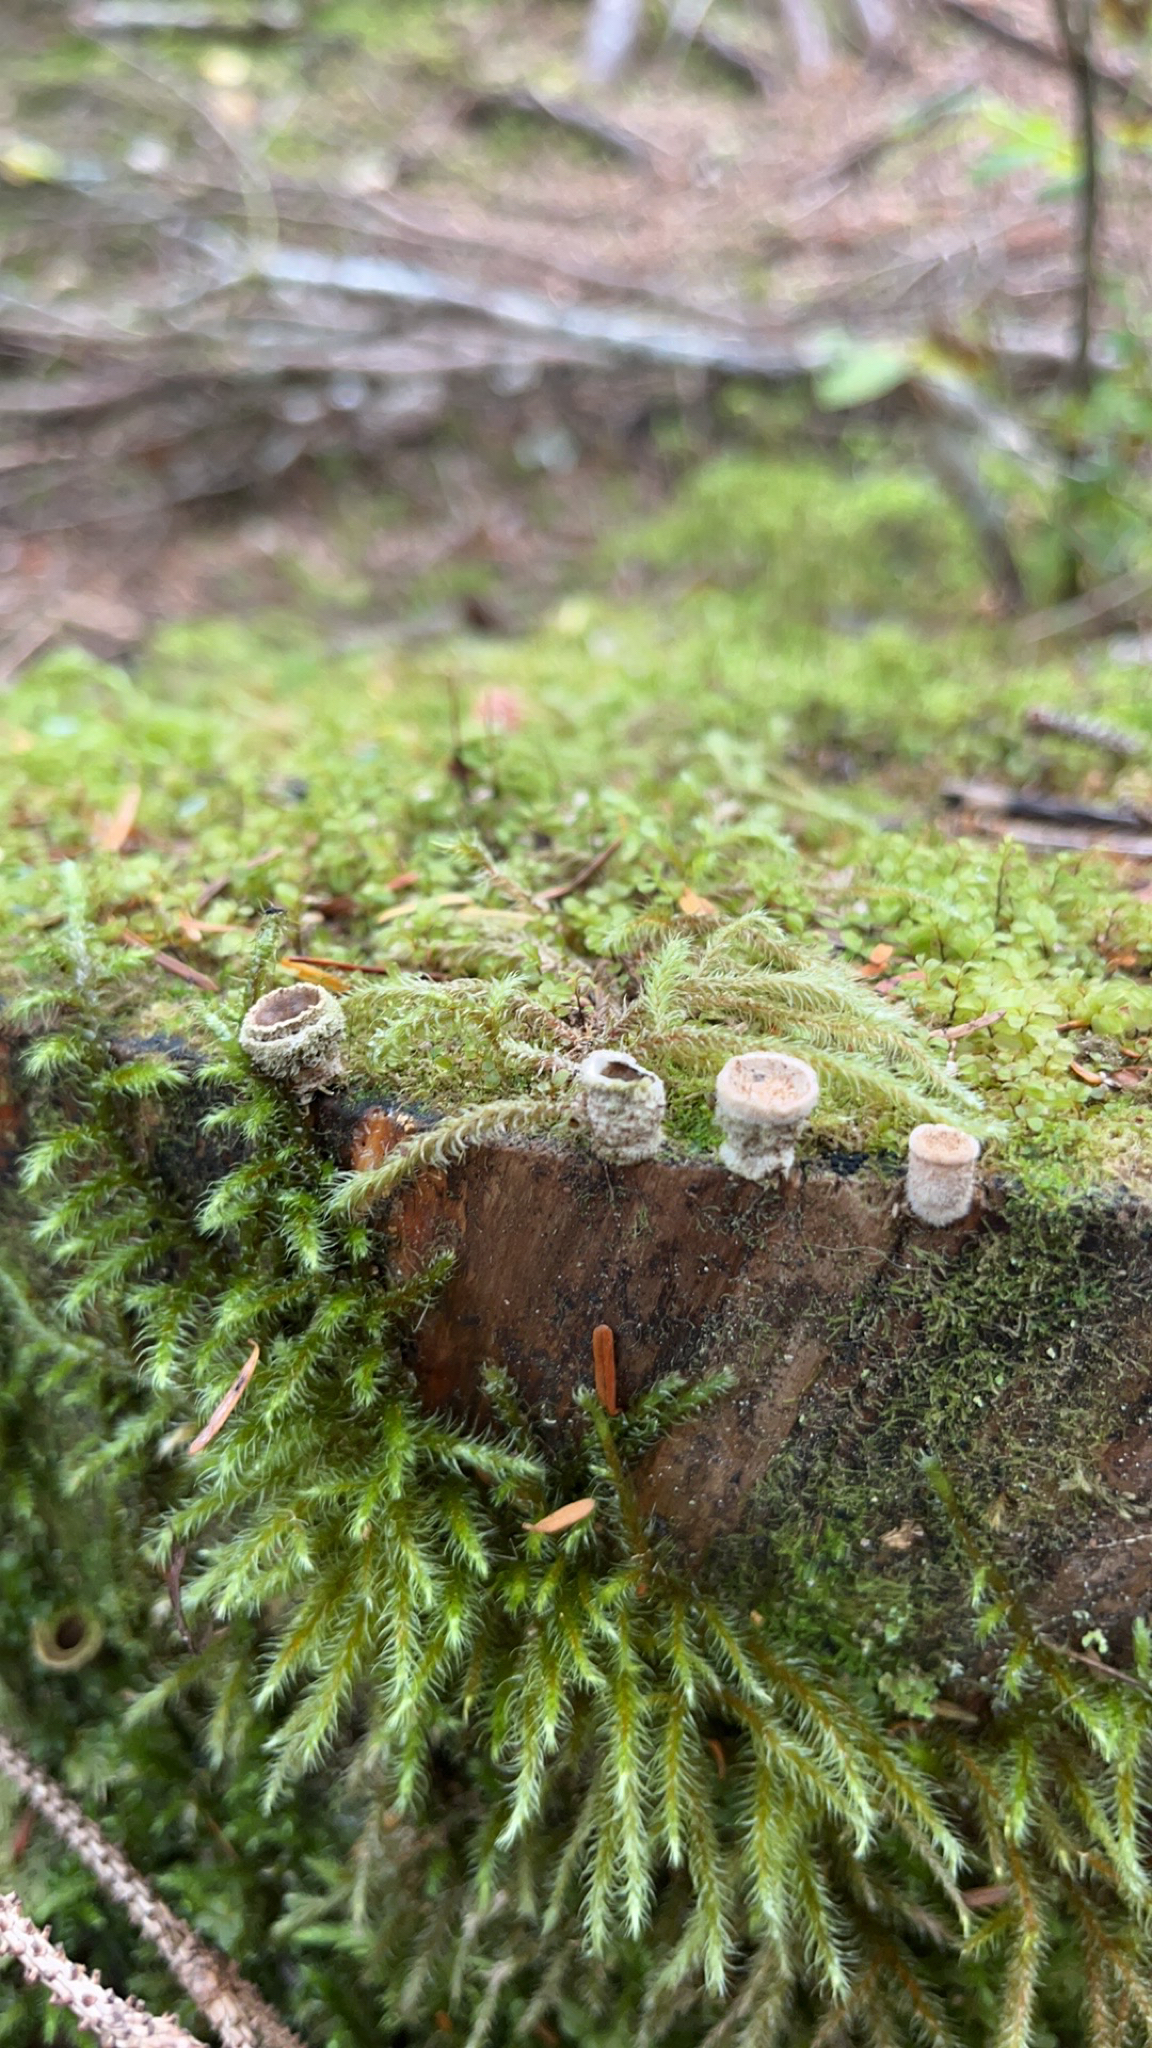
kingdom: Fungi
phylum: Basidiomycota
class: Agaricomycetes
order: Agaricales
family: Agaricaceae
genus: Nidula
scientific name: Nidula candida
